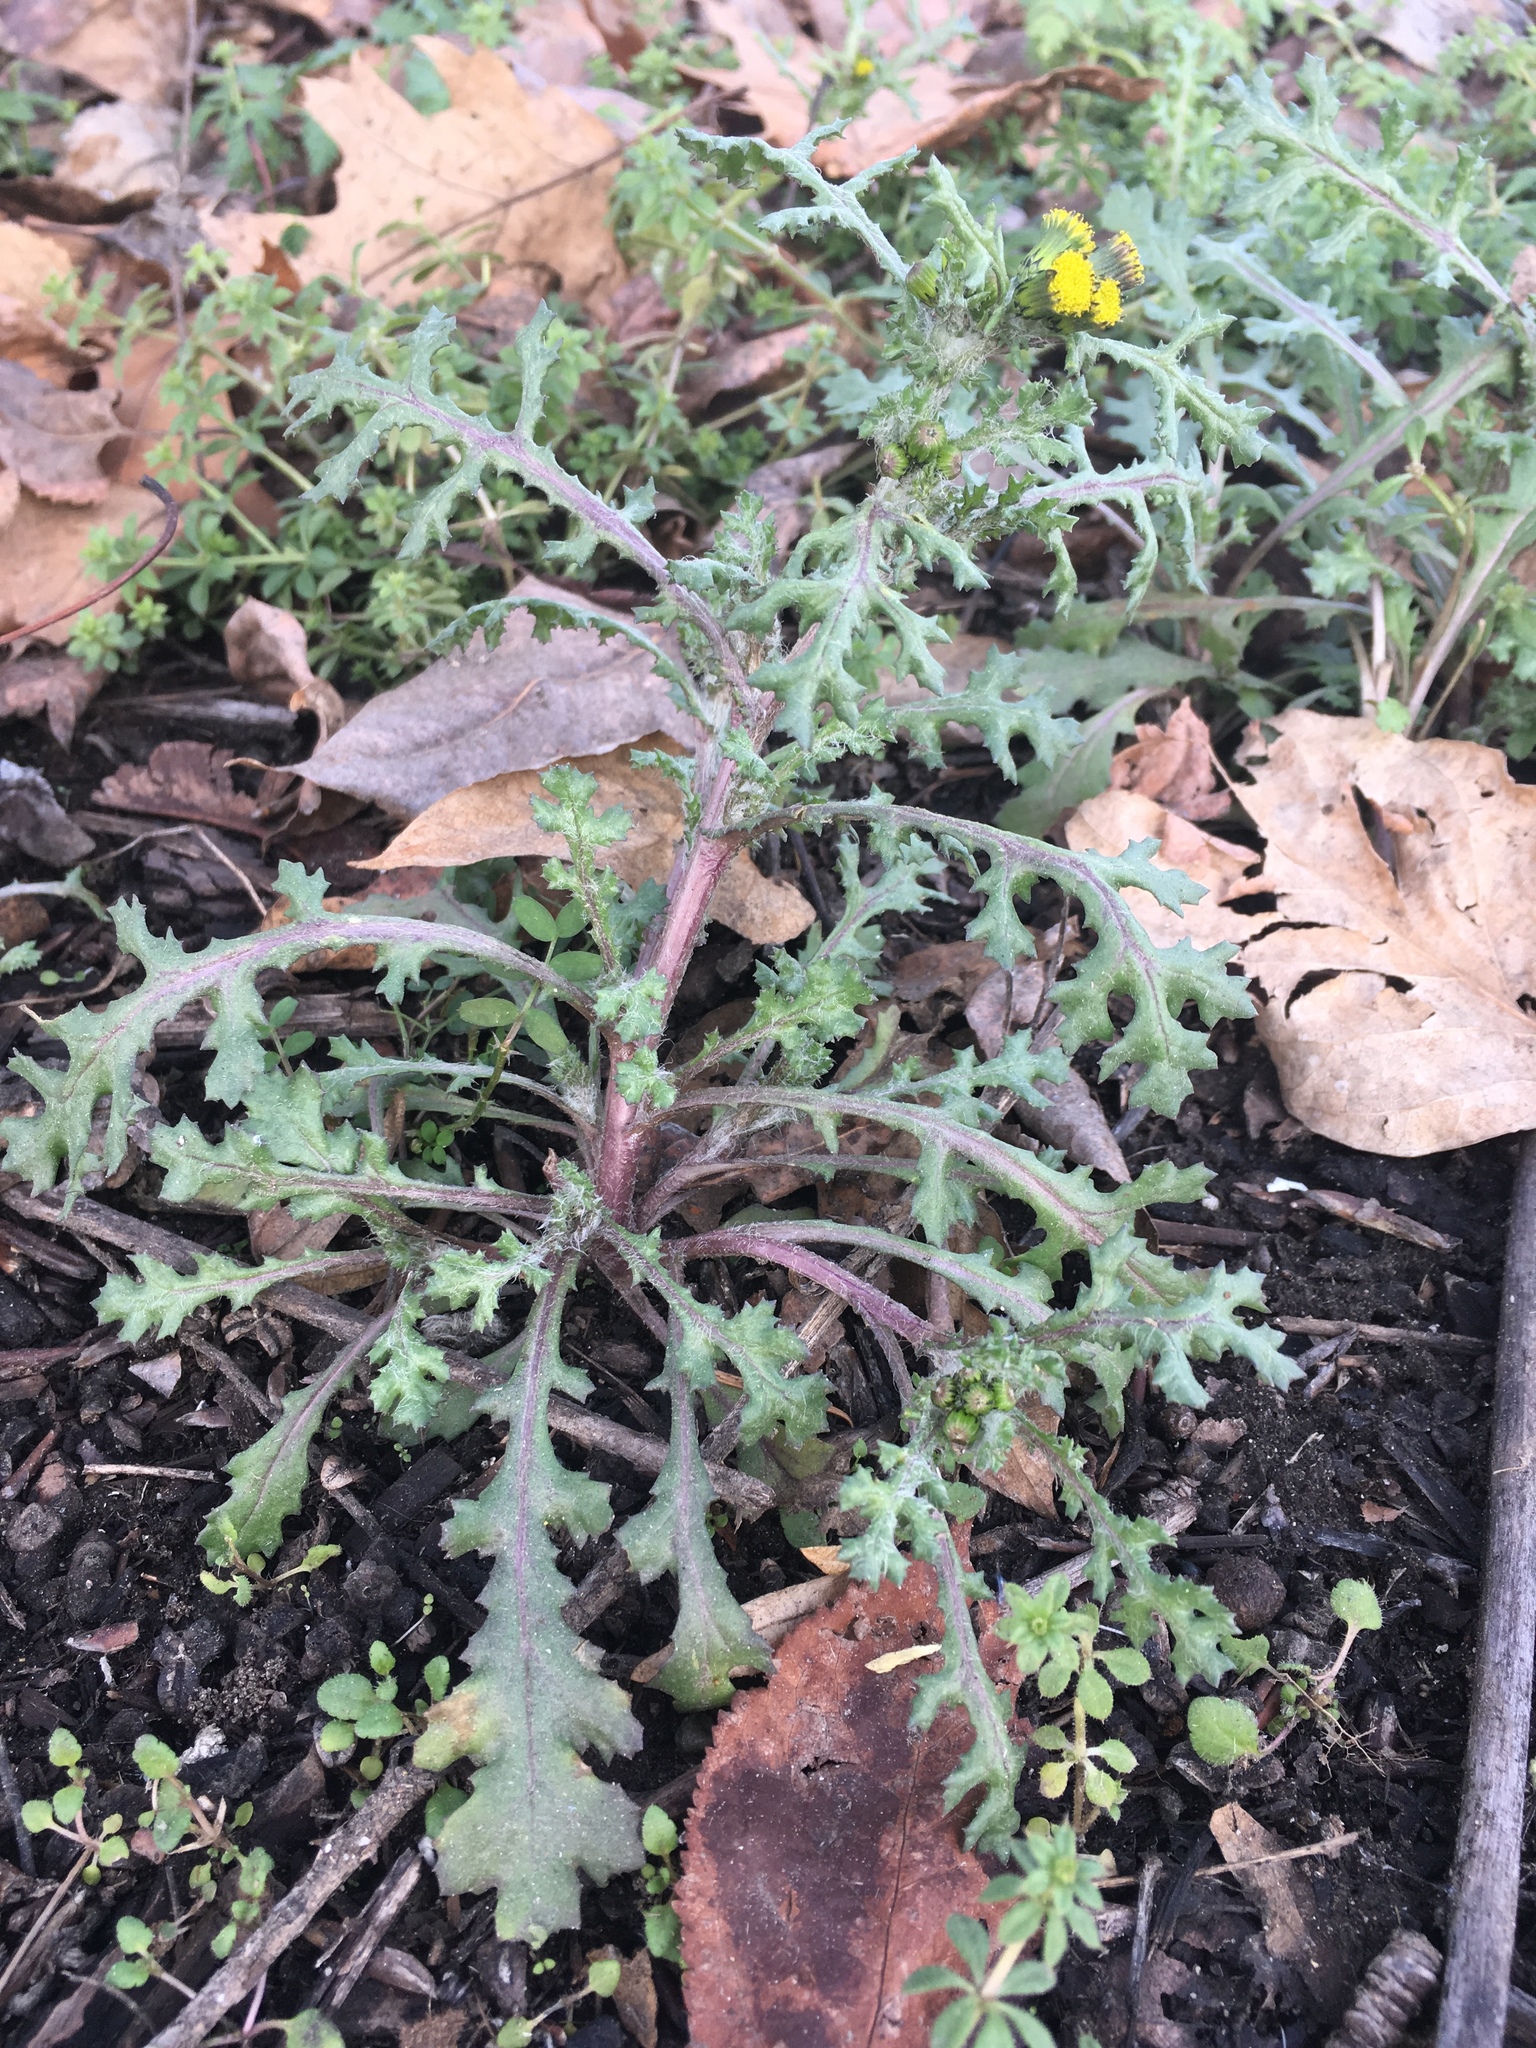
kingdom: Plantae
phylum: Tracheophyta
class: Magnoliopsida
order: Asterales
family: Asteraceae
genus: Senecio
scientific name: Senecio vulgaris
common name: Old-man-in-the-spring
